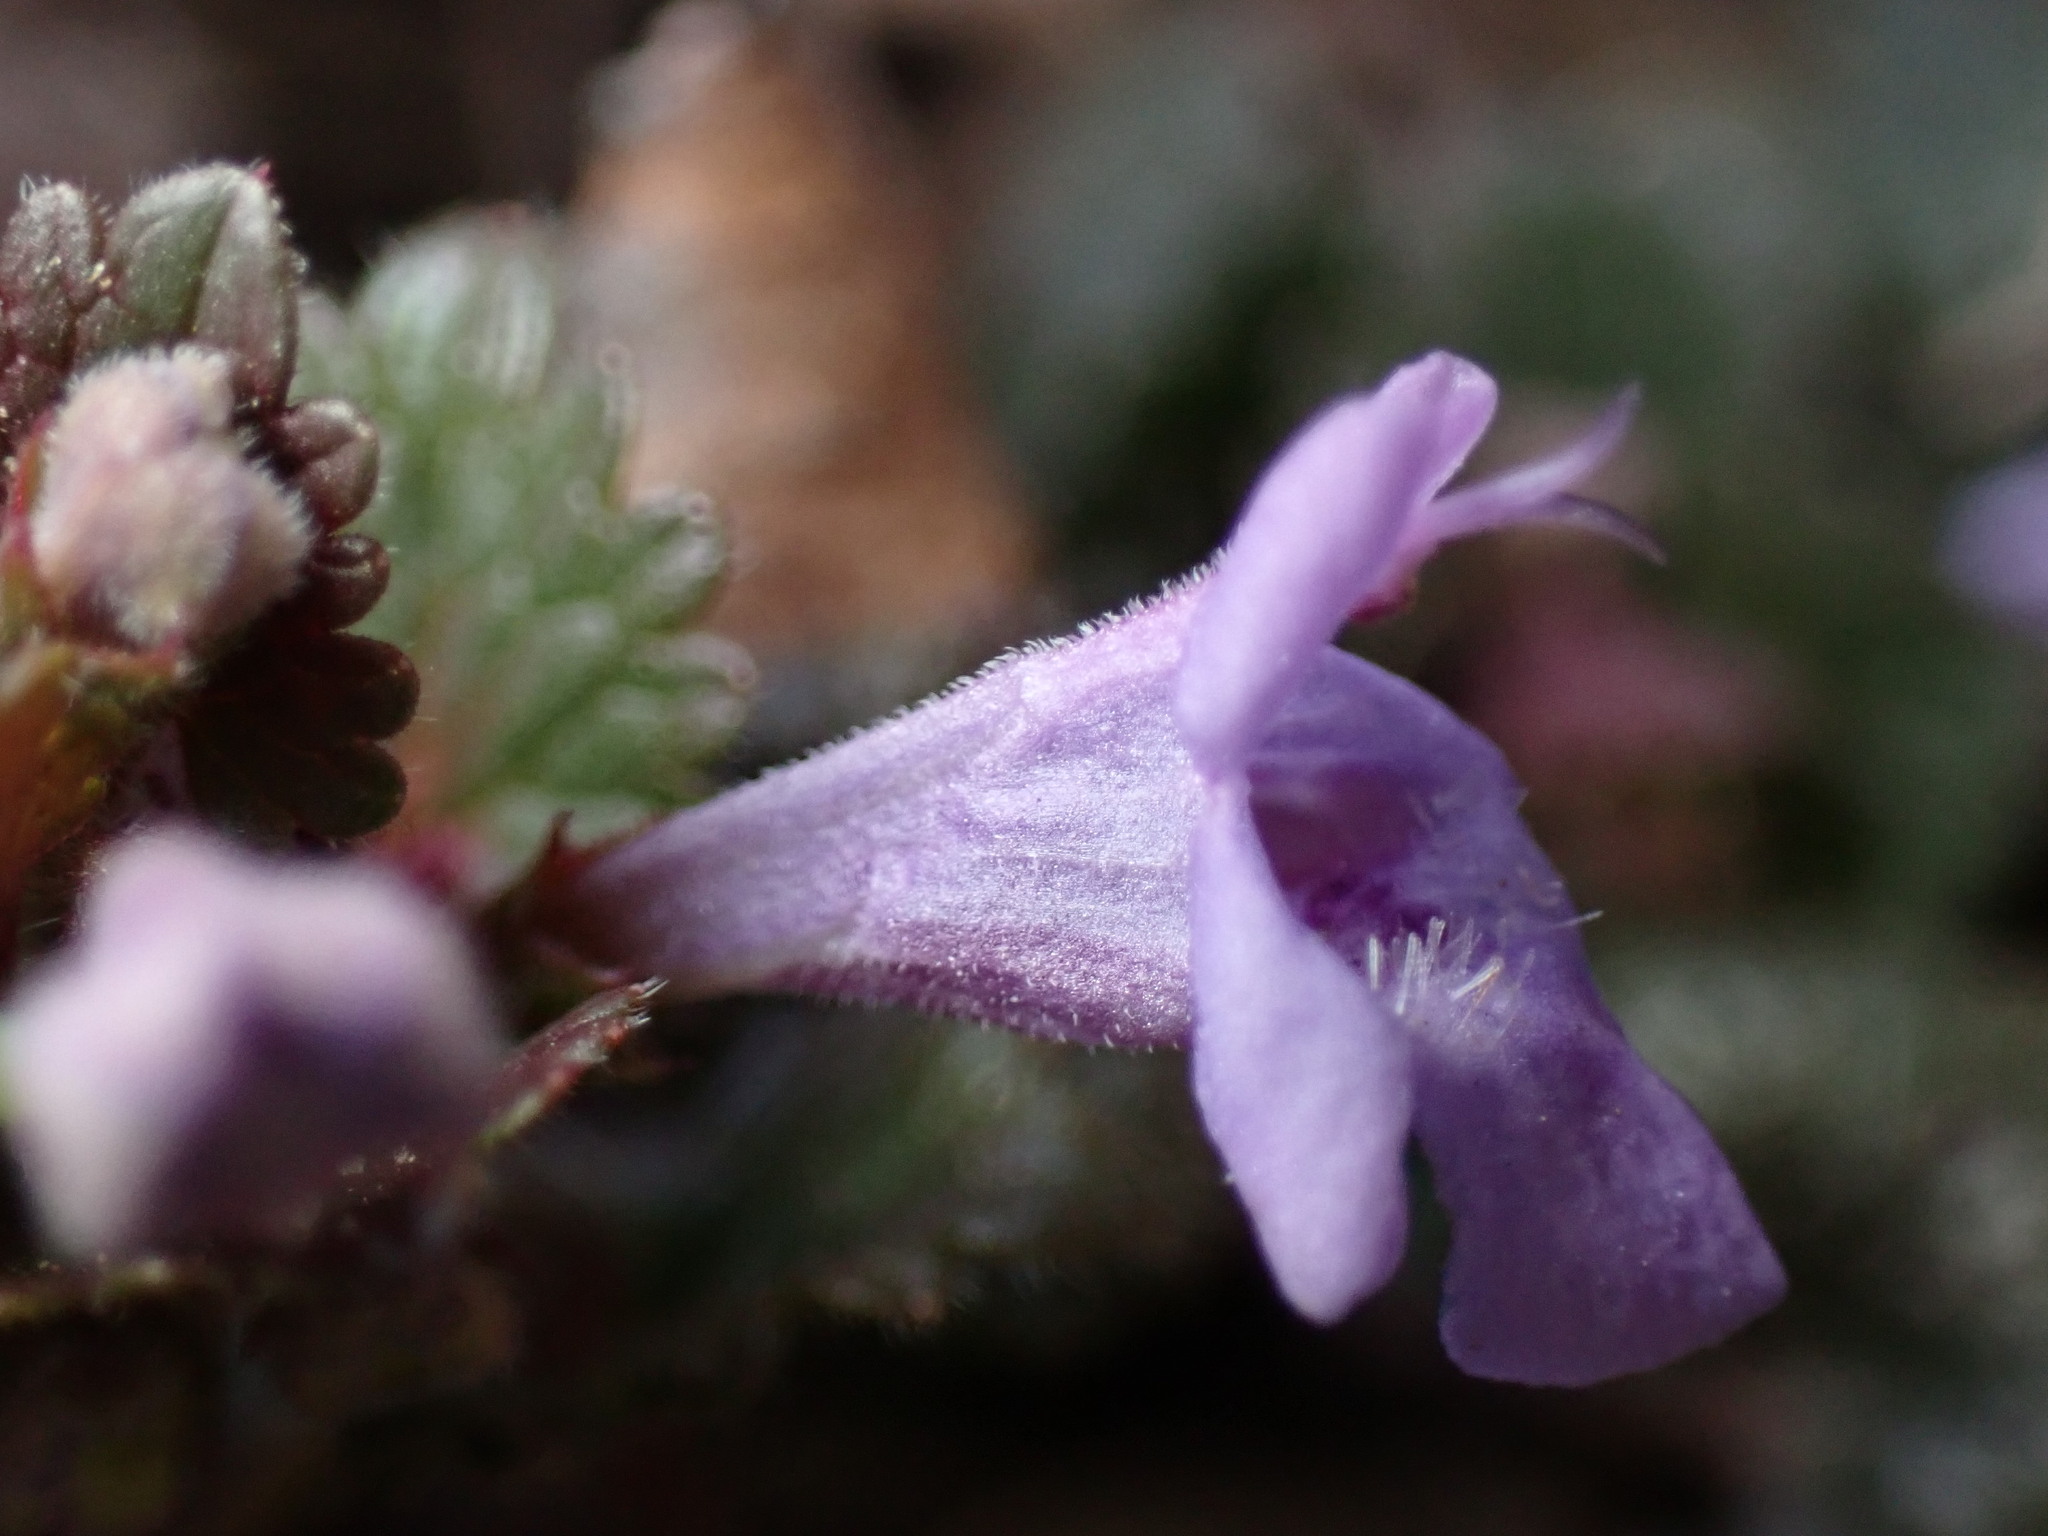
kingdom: Plantae
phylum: Tracheophyta
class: Magnoliopsida
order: Lamiales
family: Lamiaceae
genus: Glechoma
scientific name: Glechoma hederacea
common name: Ground ivy
